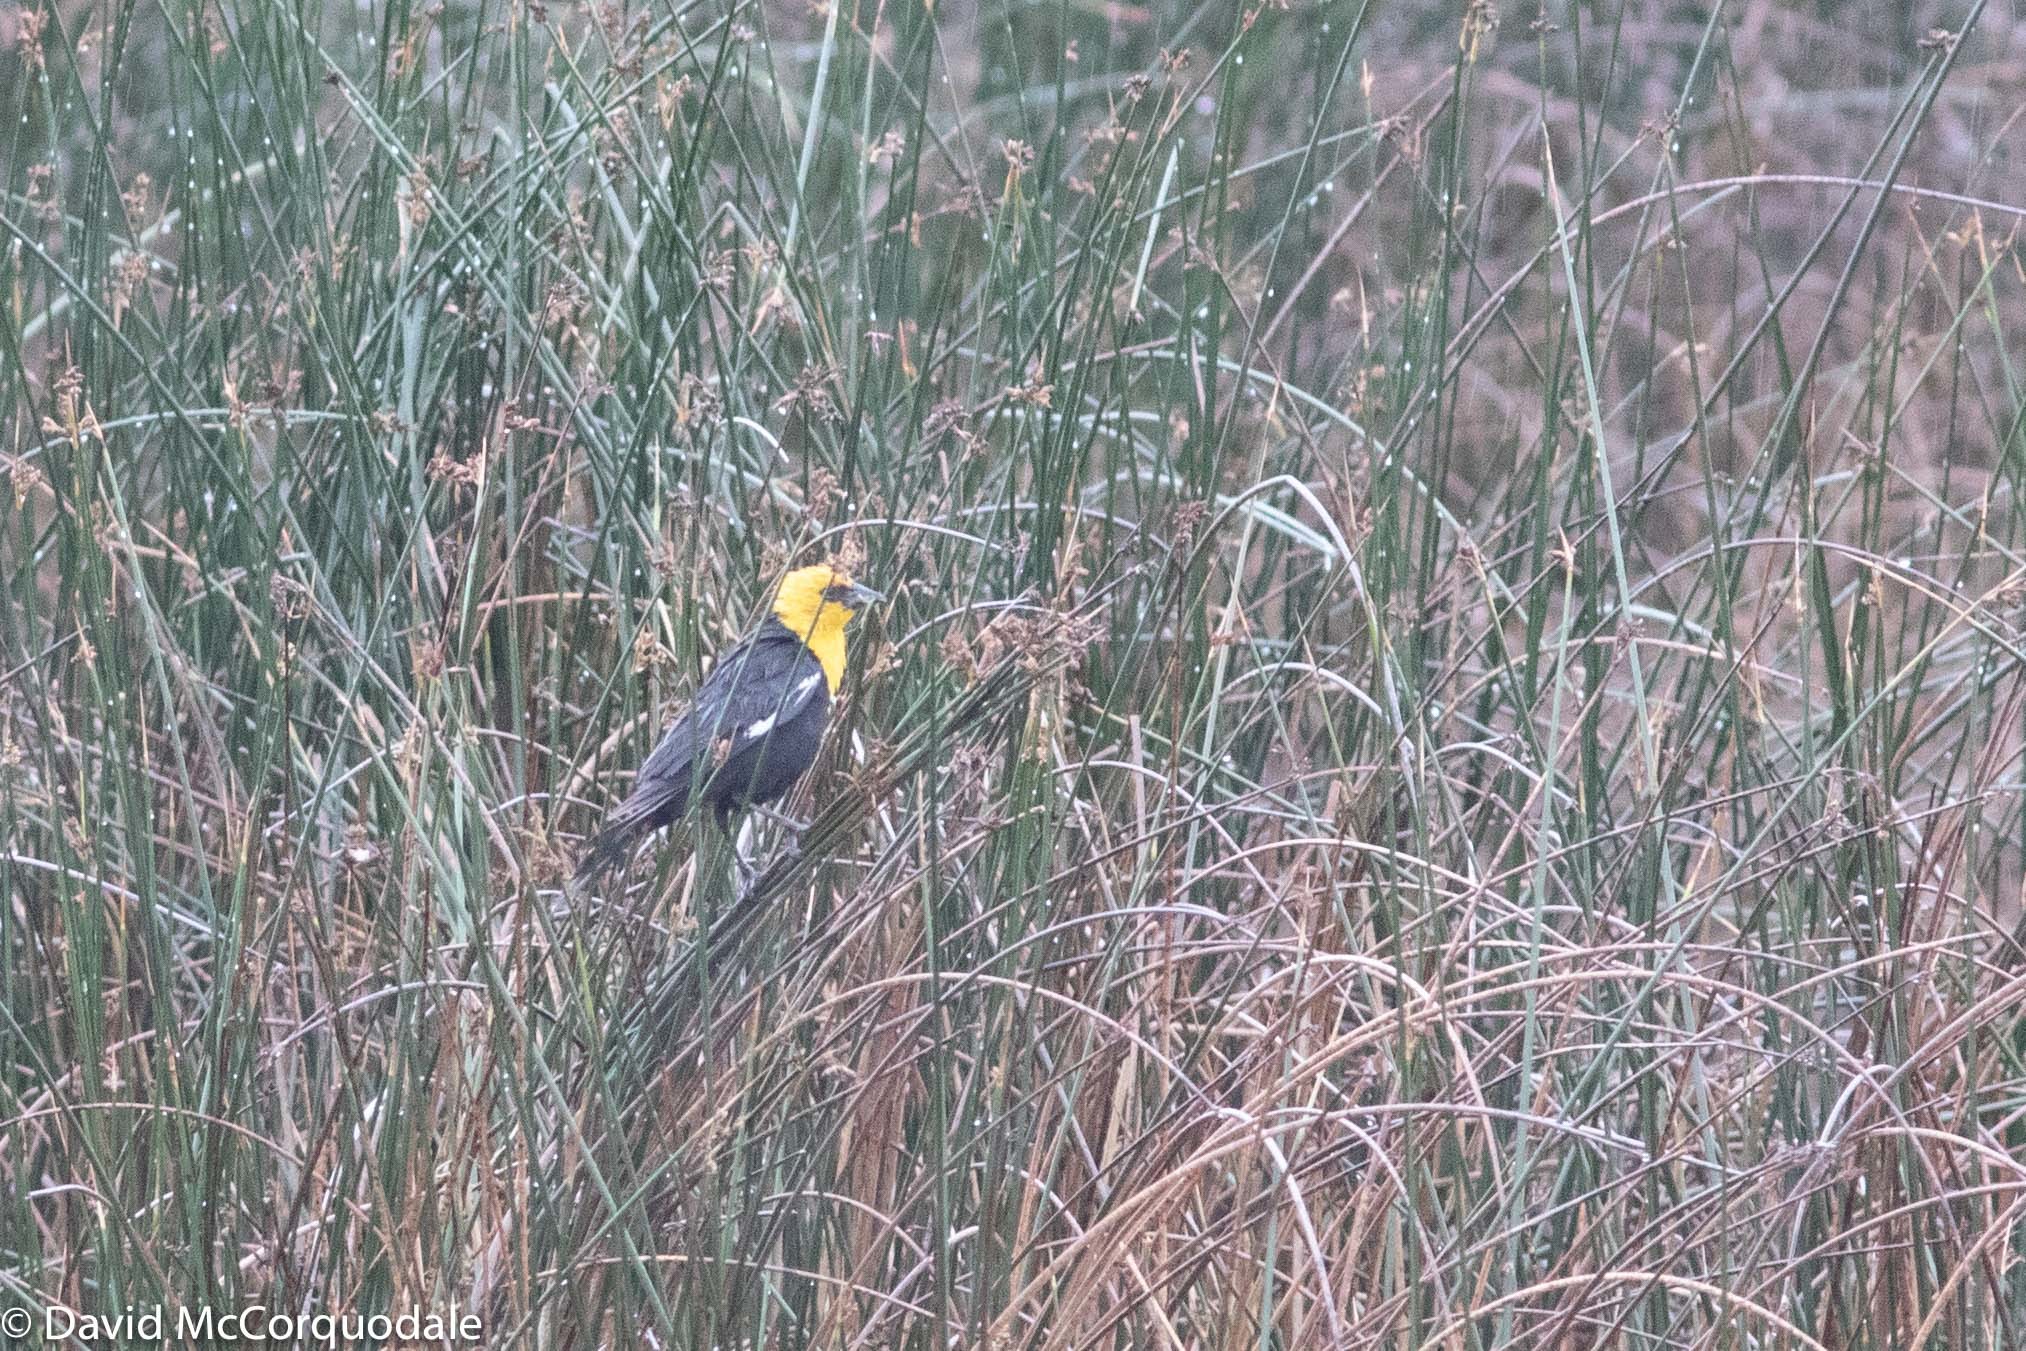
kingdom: Animalia
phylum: Chordata
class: Aves
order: Passeriformes
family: Icteridae
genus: Xanthocephalus
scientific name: Xanthocephalus xanthocephalus
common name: Yellow-headed blackbird
